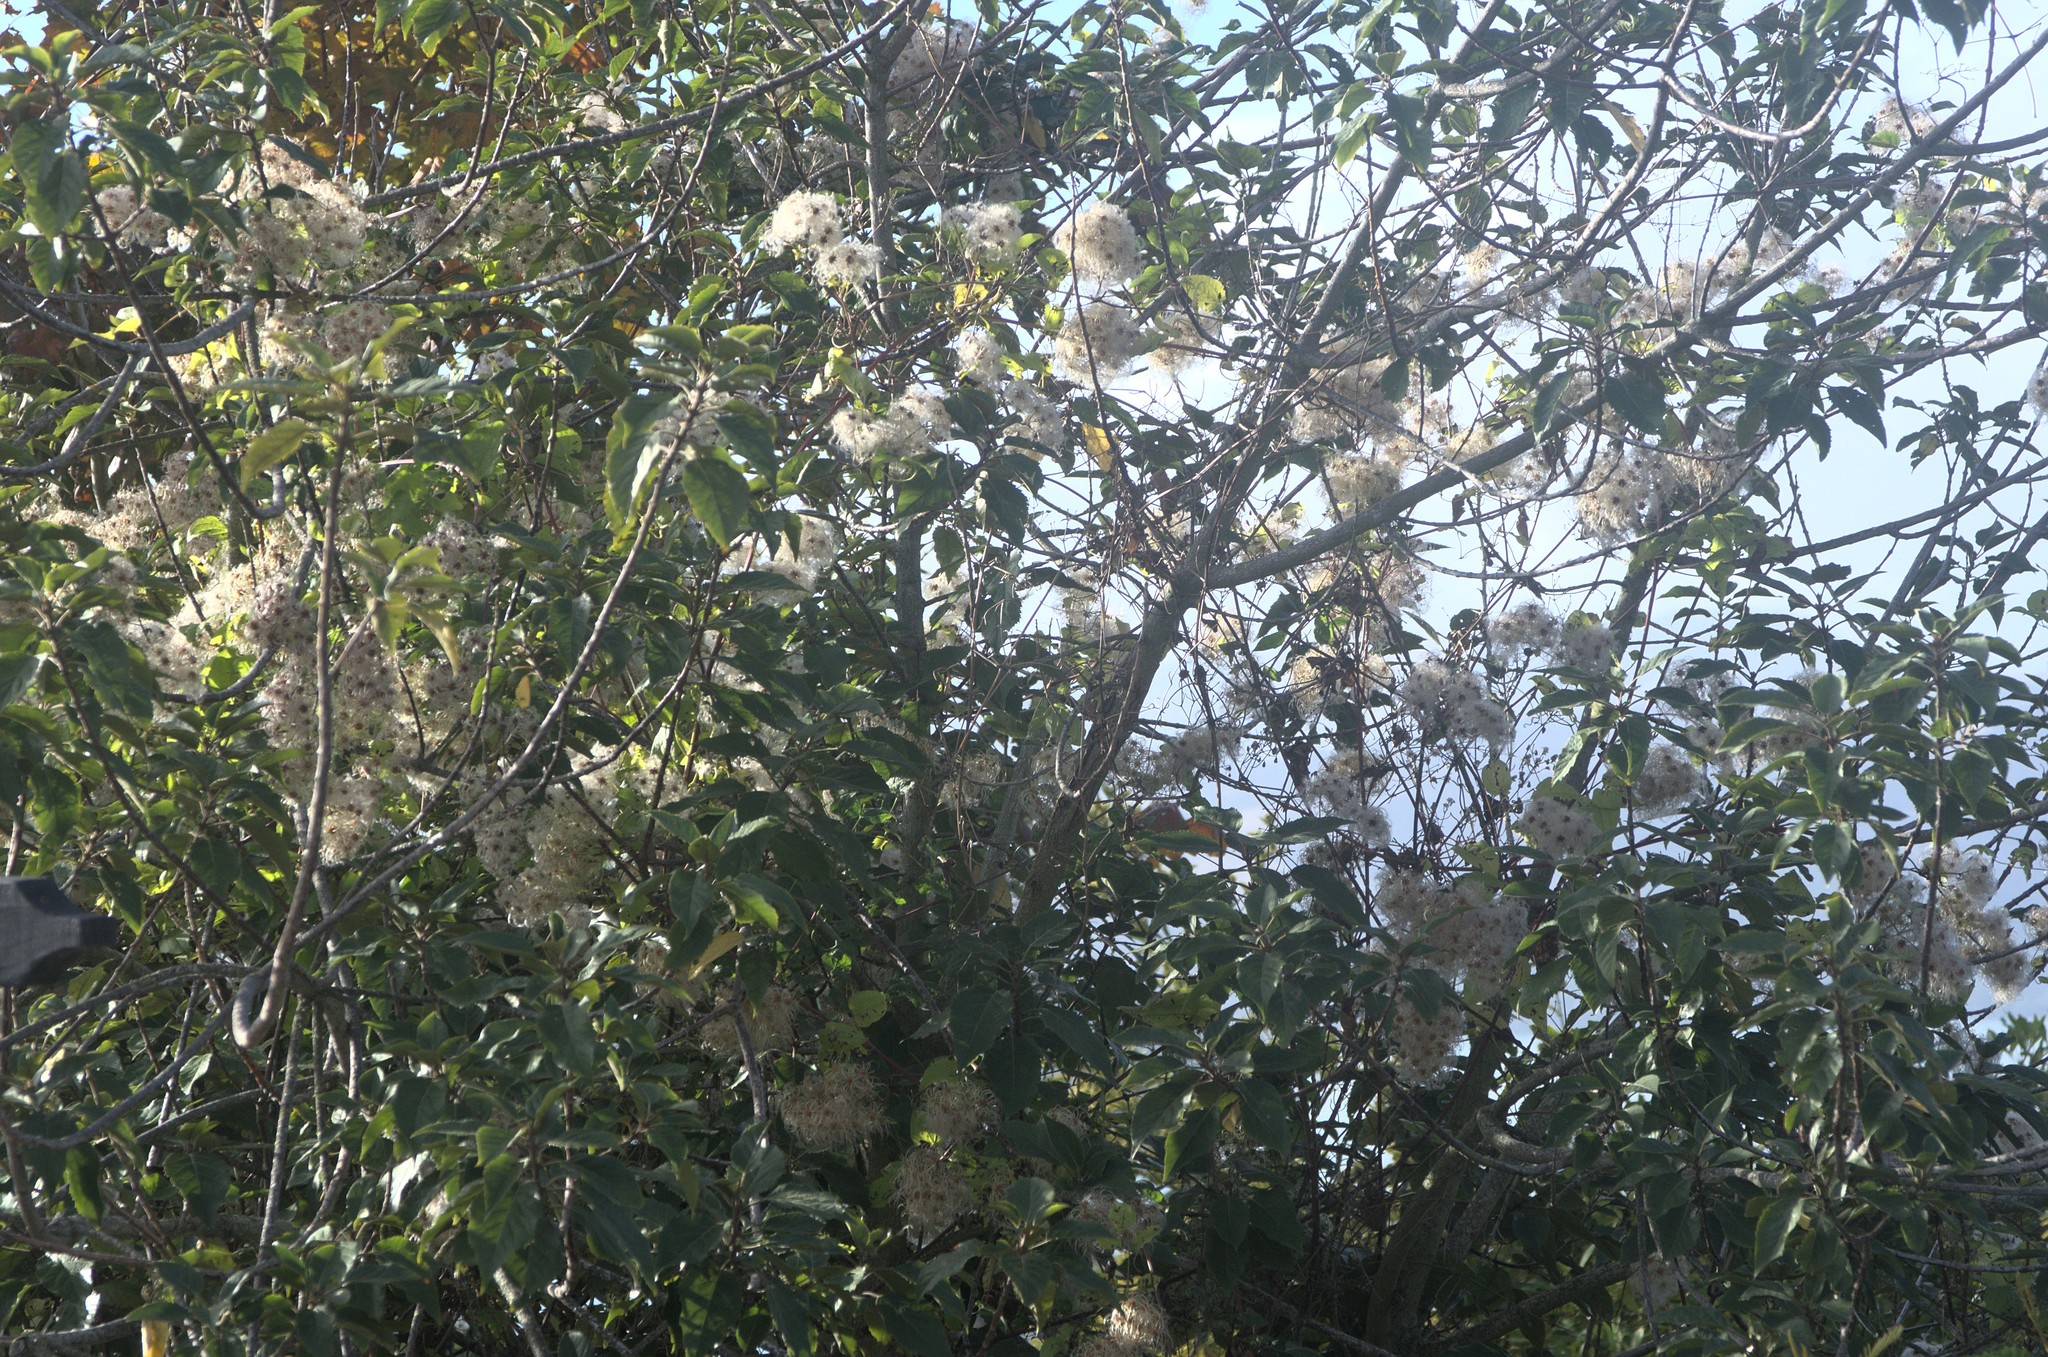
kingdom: Plantae
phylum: Tracheophyta
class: Magnoliopsida
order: Ranunculales
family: Ranunculaceae
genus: Clematis
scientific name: Clematis vitalba
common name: Evergreen clematis
